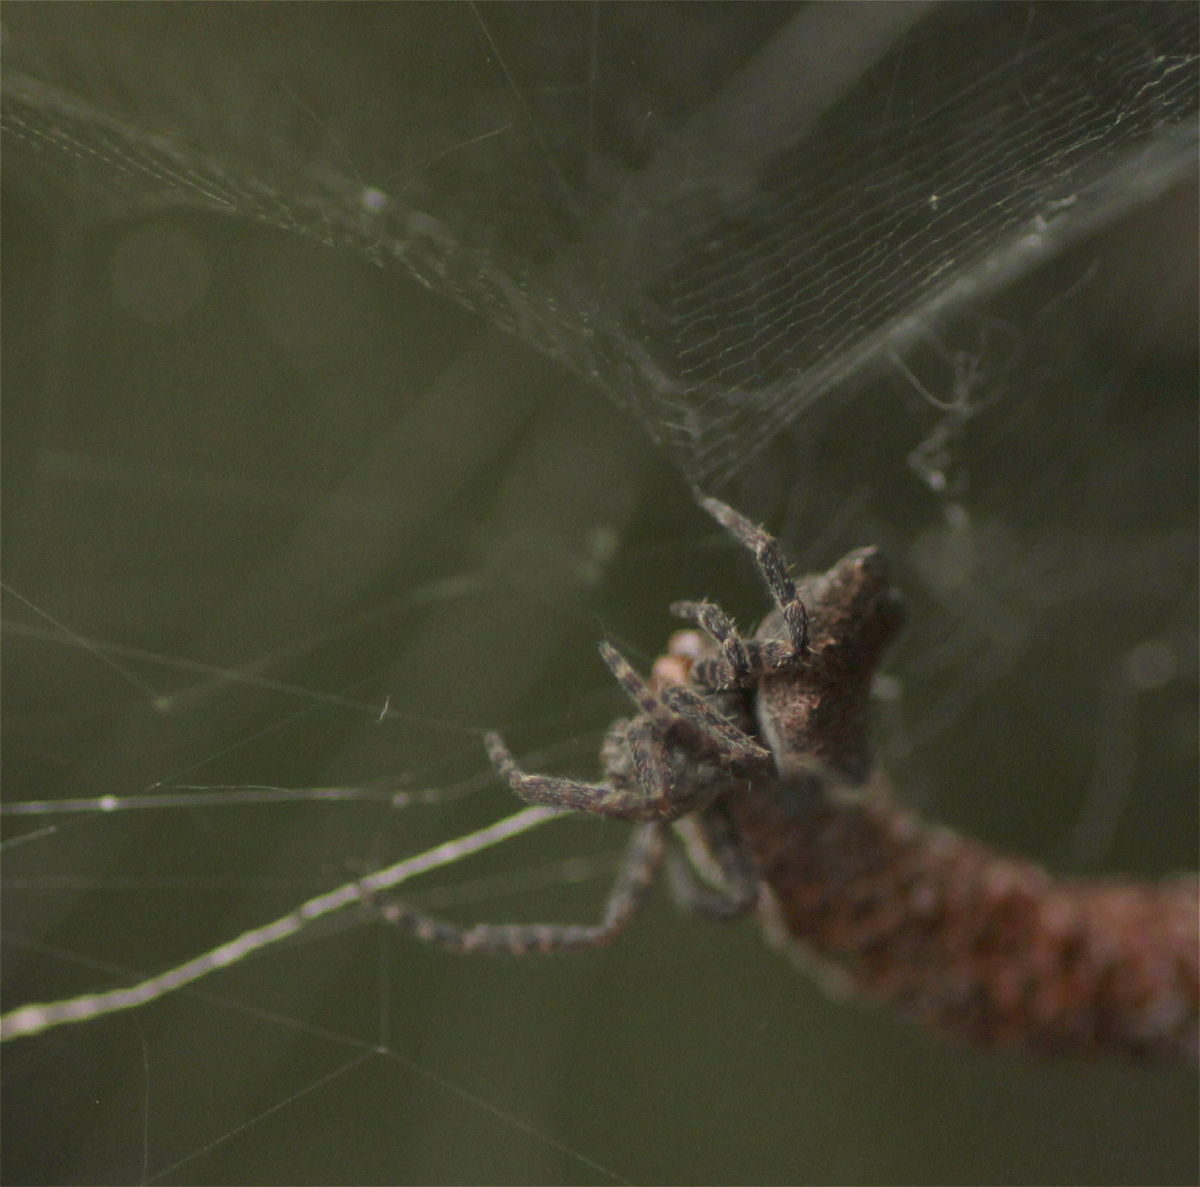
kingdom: Animalia
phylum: Arthropoda
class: Arachnida
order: Araneae
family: Araneidae
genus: Cyrtophora
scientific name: Cyrtophora citricola
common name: Orb weavers
